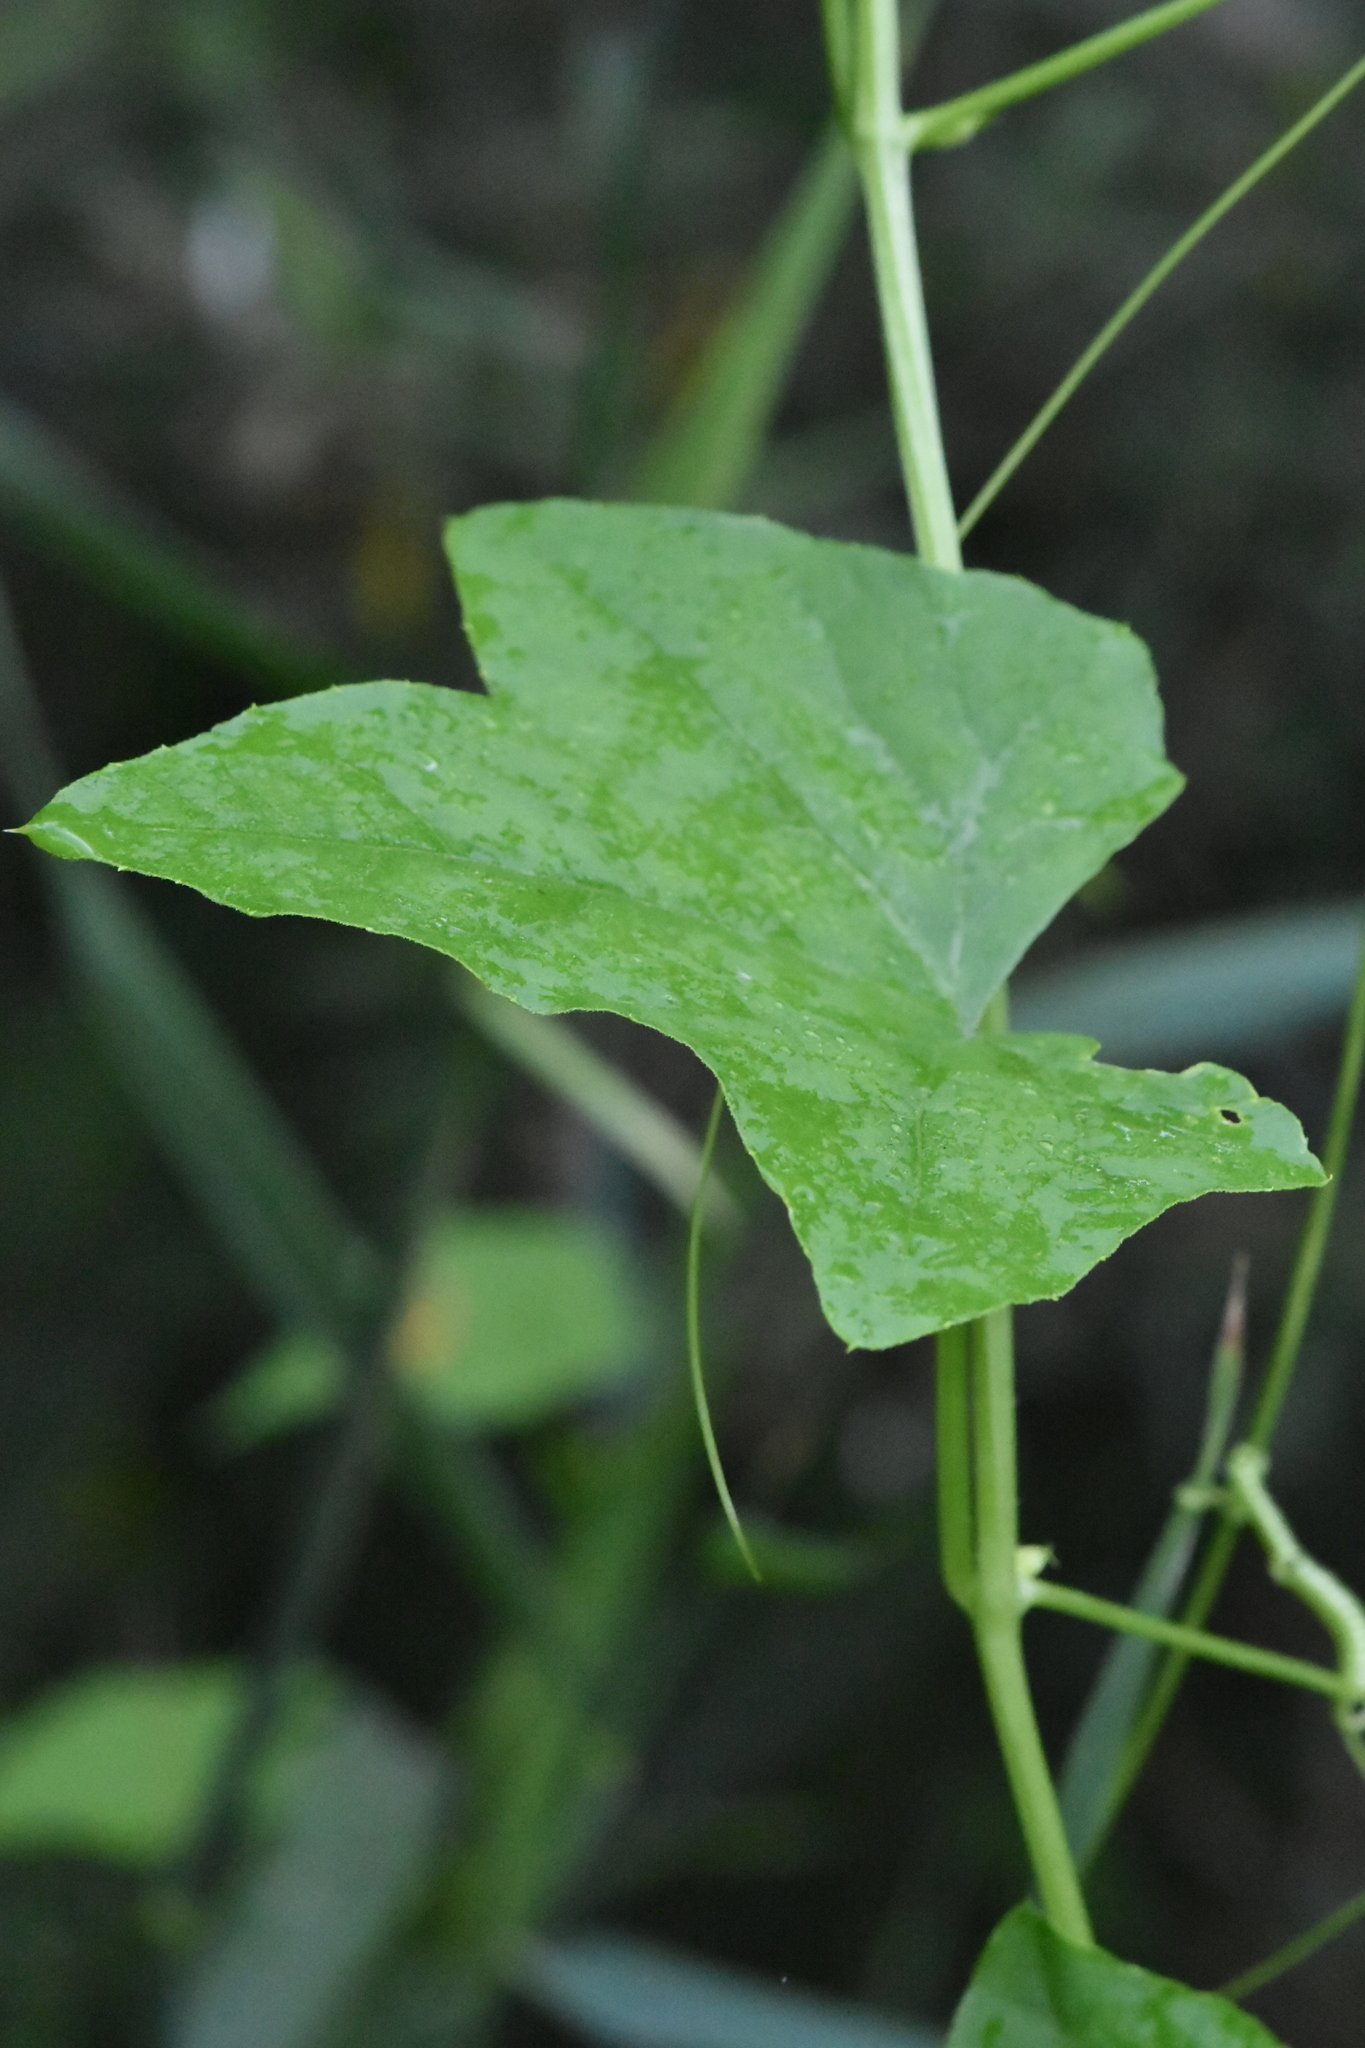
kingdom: Plantae
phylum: Tracheophyta
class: Magnoliopsida
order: Cucurbitales
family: Cucurbitaceae
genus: Echinocystis
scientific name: Echinocystis lobata
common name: Wild cucumber
